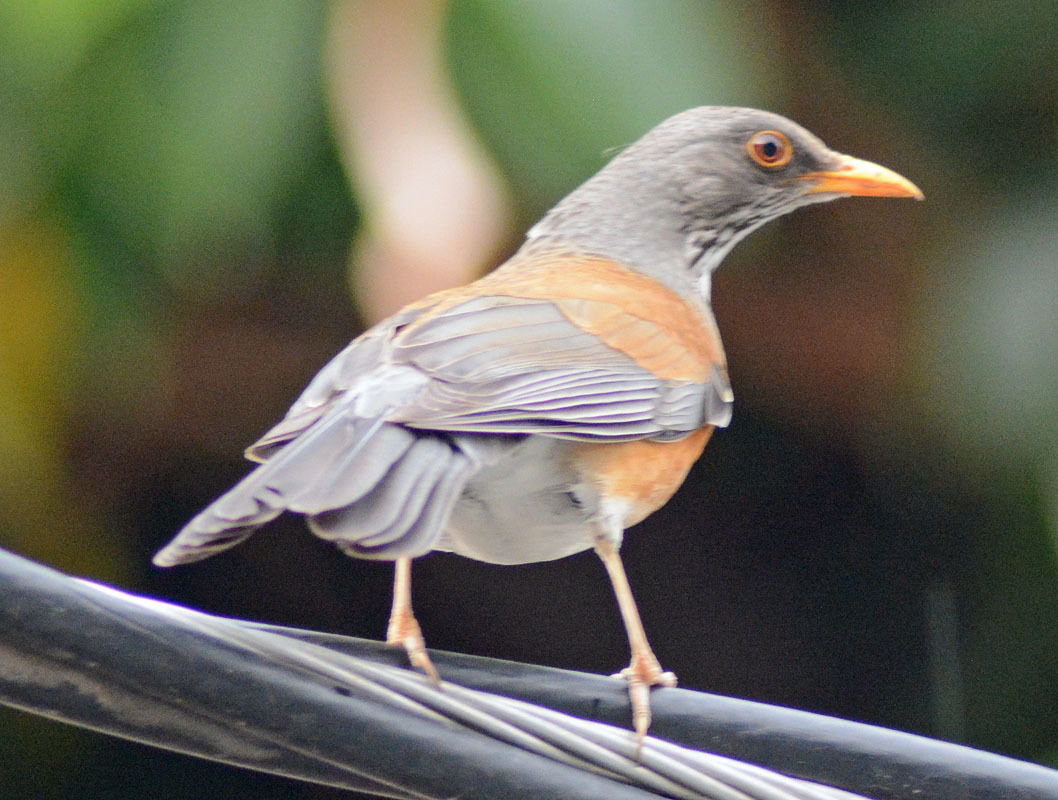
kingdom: Animalia
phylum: Chordata
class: Aves
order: Passeriformes
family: Turdidae
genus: Turdus
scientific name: Turdus rufopalliatus
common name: Rufous-backed robin
